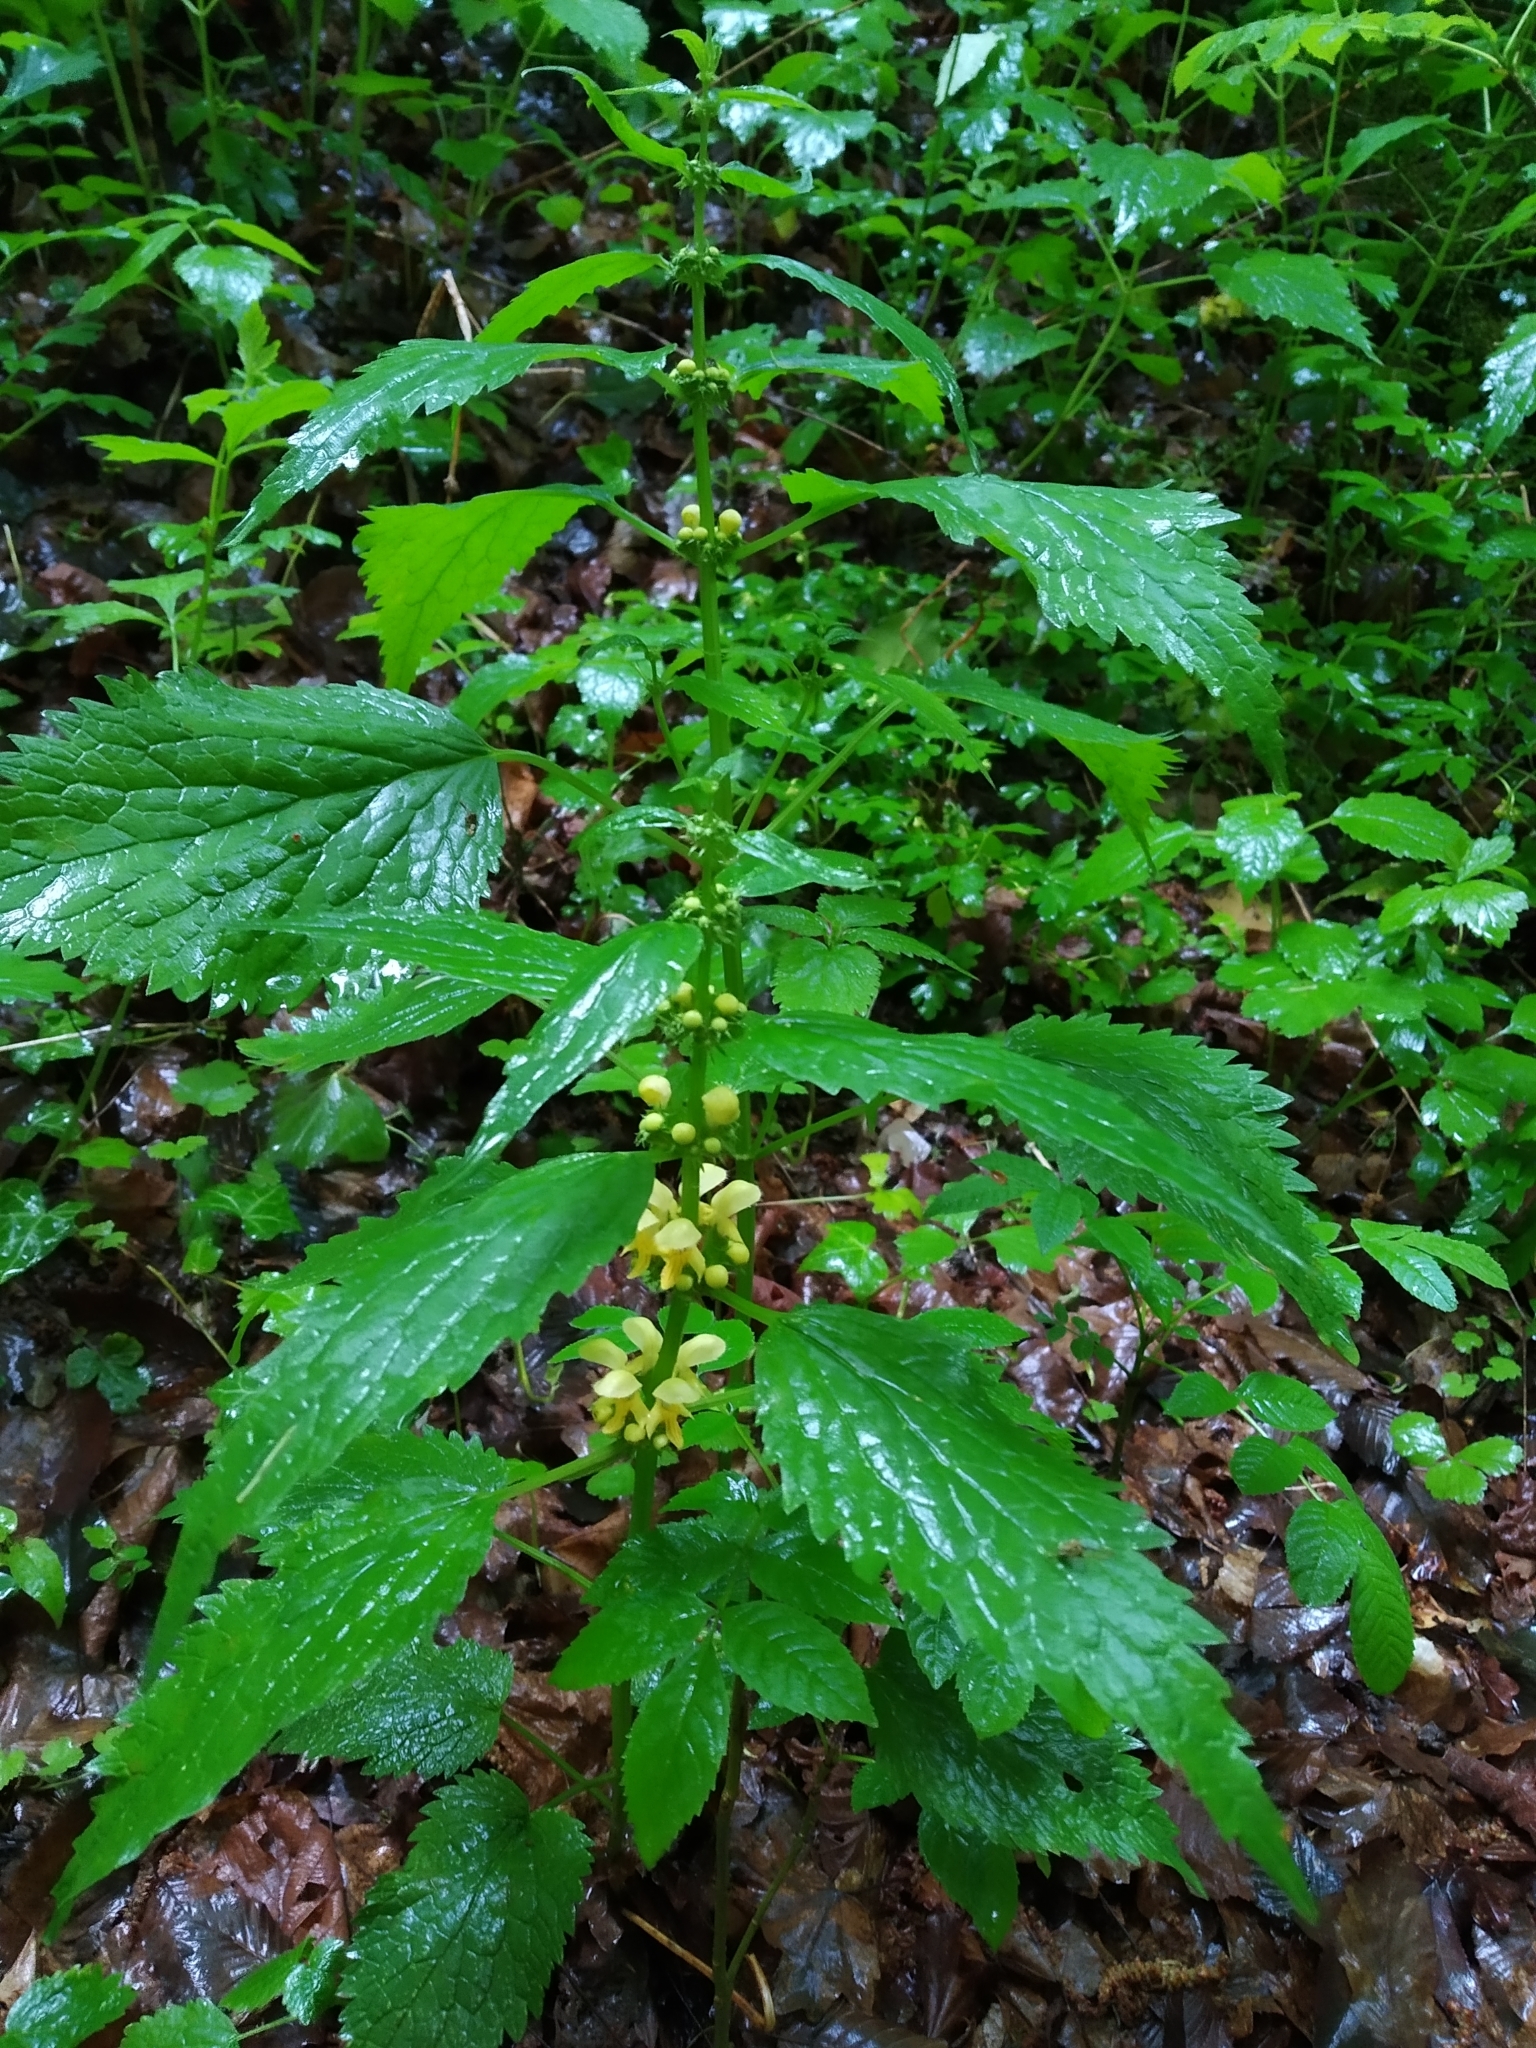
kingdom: Plantae
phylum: Tracheophyta
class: Magnoliopsida
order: Lamiales
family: Lamiaceae
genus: Lamium
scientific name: Lamium galeobdolon
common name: Yellow archangel
